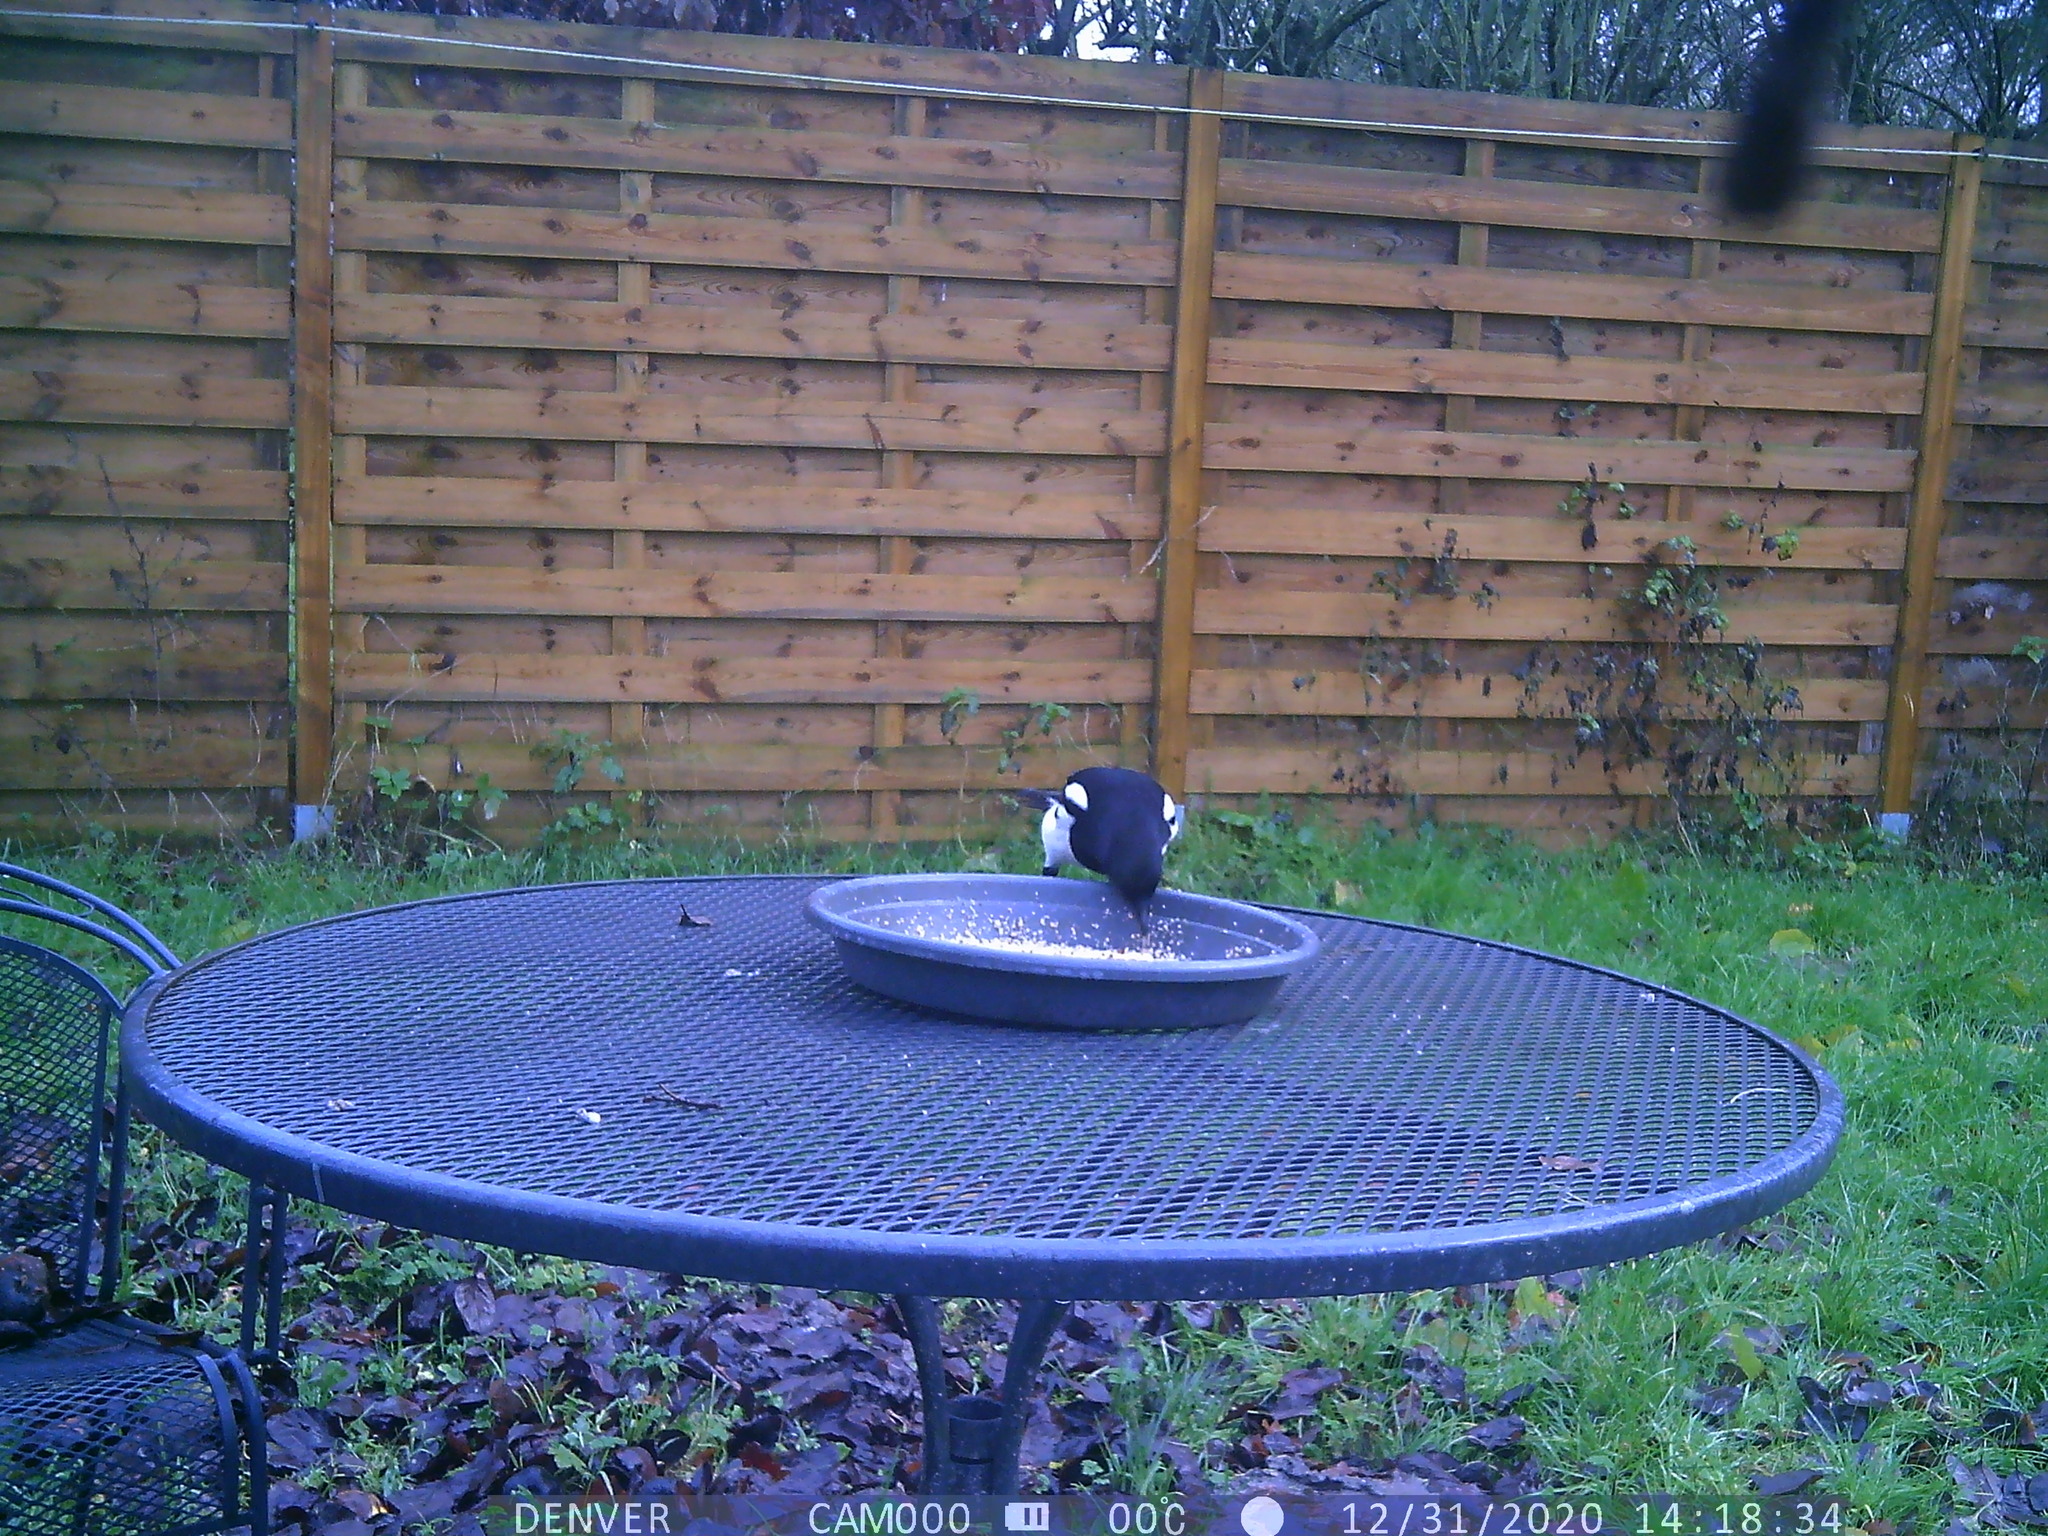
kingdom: Animalia
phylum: Chordata
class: Aves
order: Passeriformes
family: Corvidae
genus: Pica
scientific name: Pica pica
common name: Eurasian magpie
